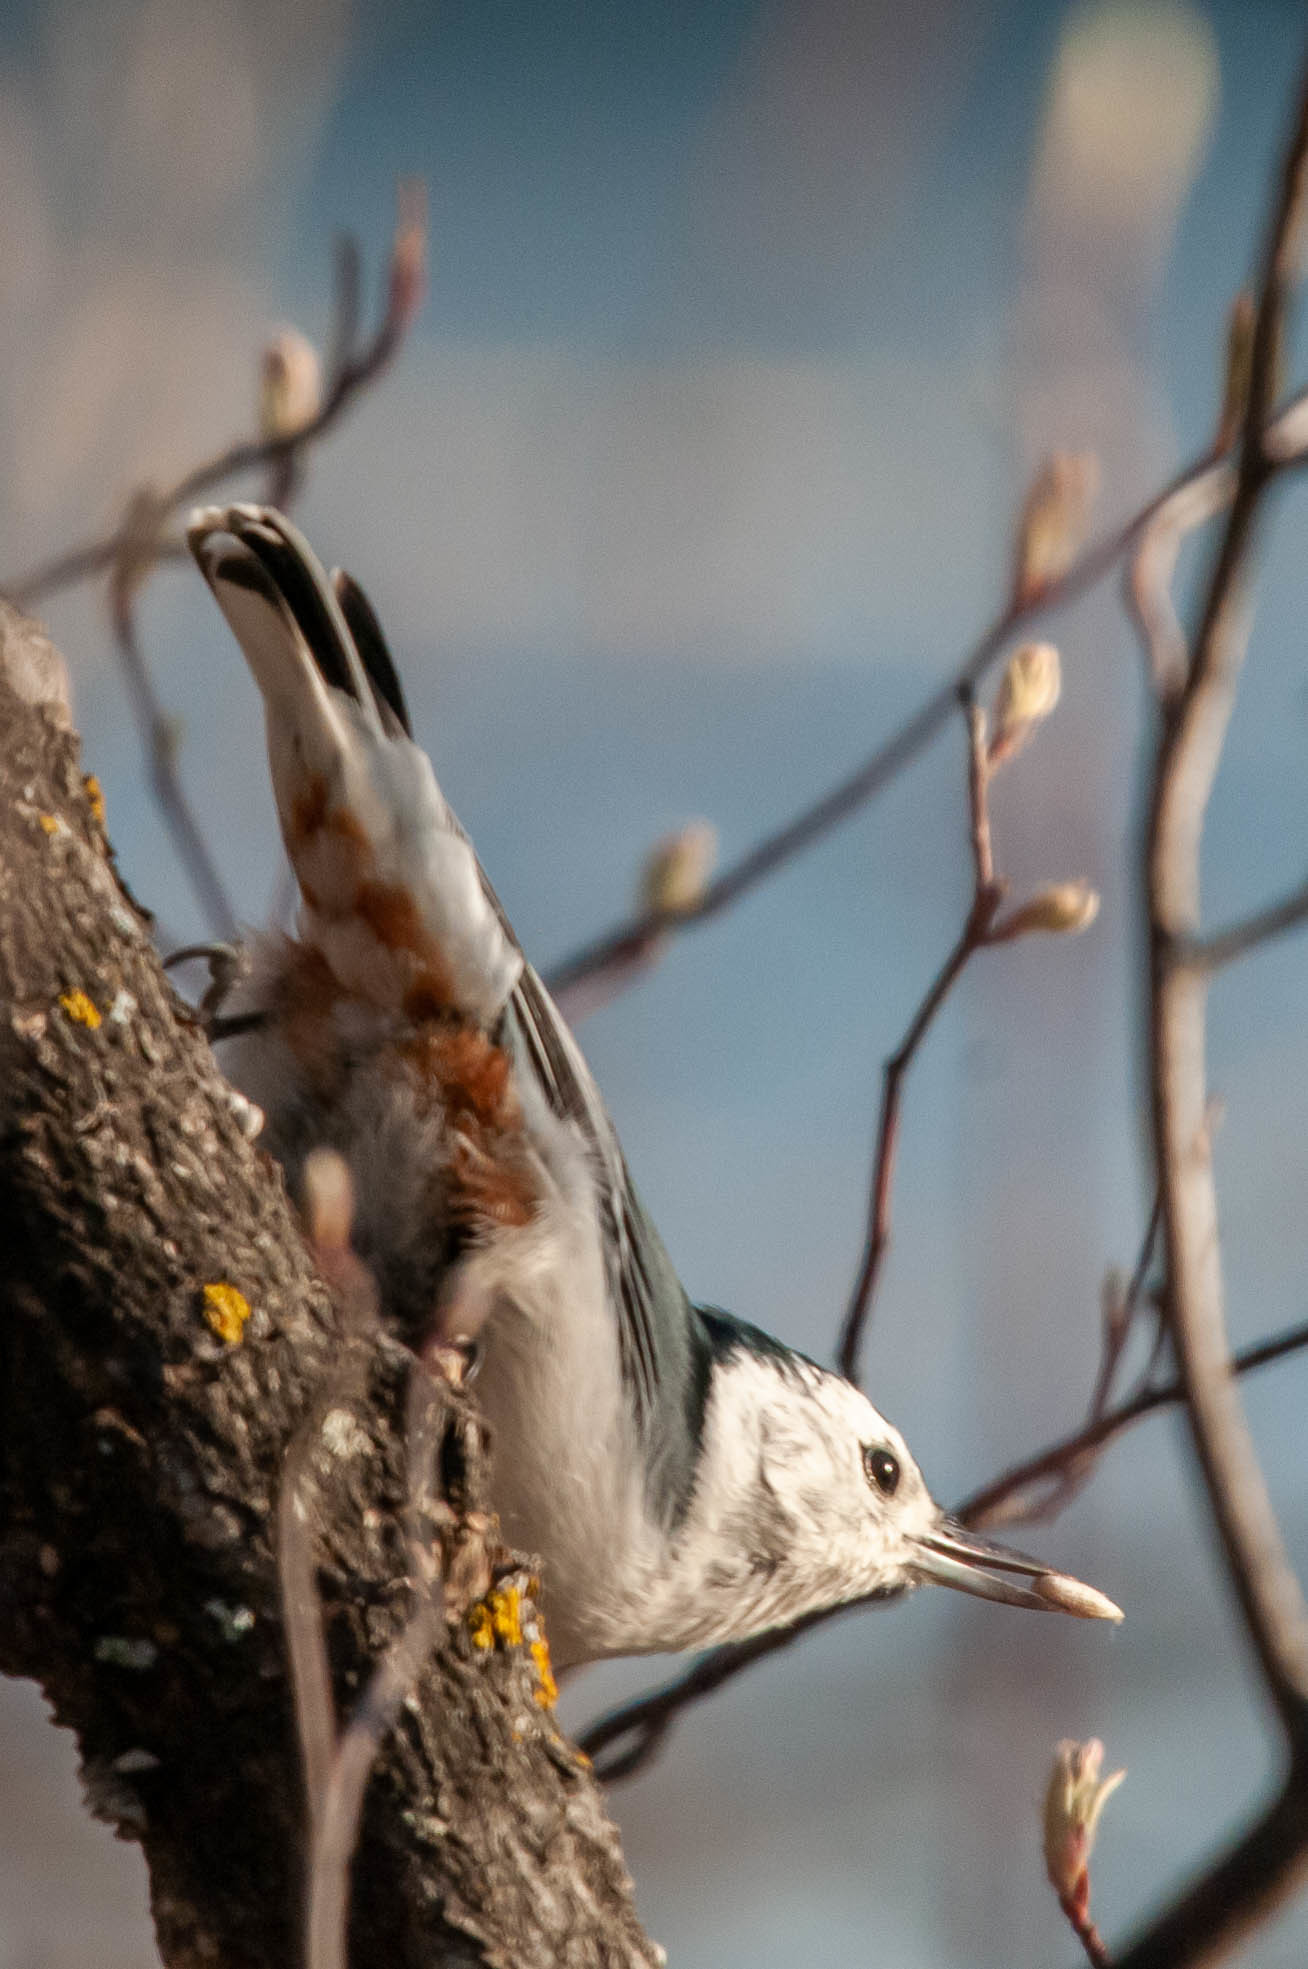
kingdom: Animalia
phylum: Chordata
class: Aves
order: Passeriformes
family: Sittidae
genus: Sitta
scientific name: Sitta carolinensis
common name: White-breasted nuthatch
